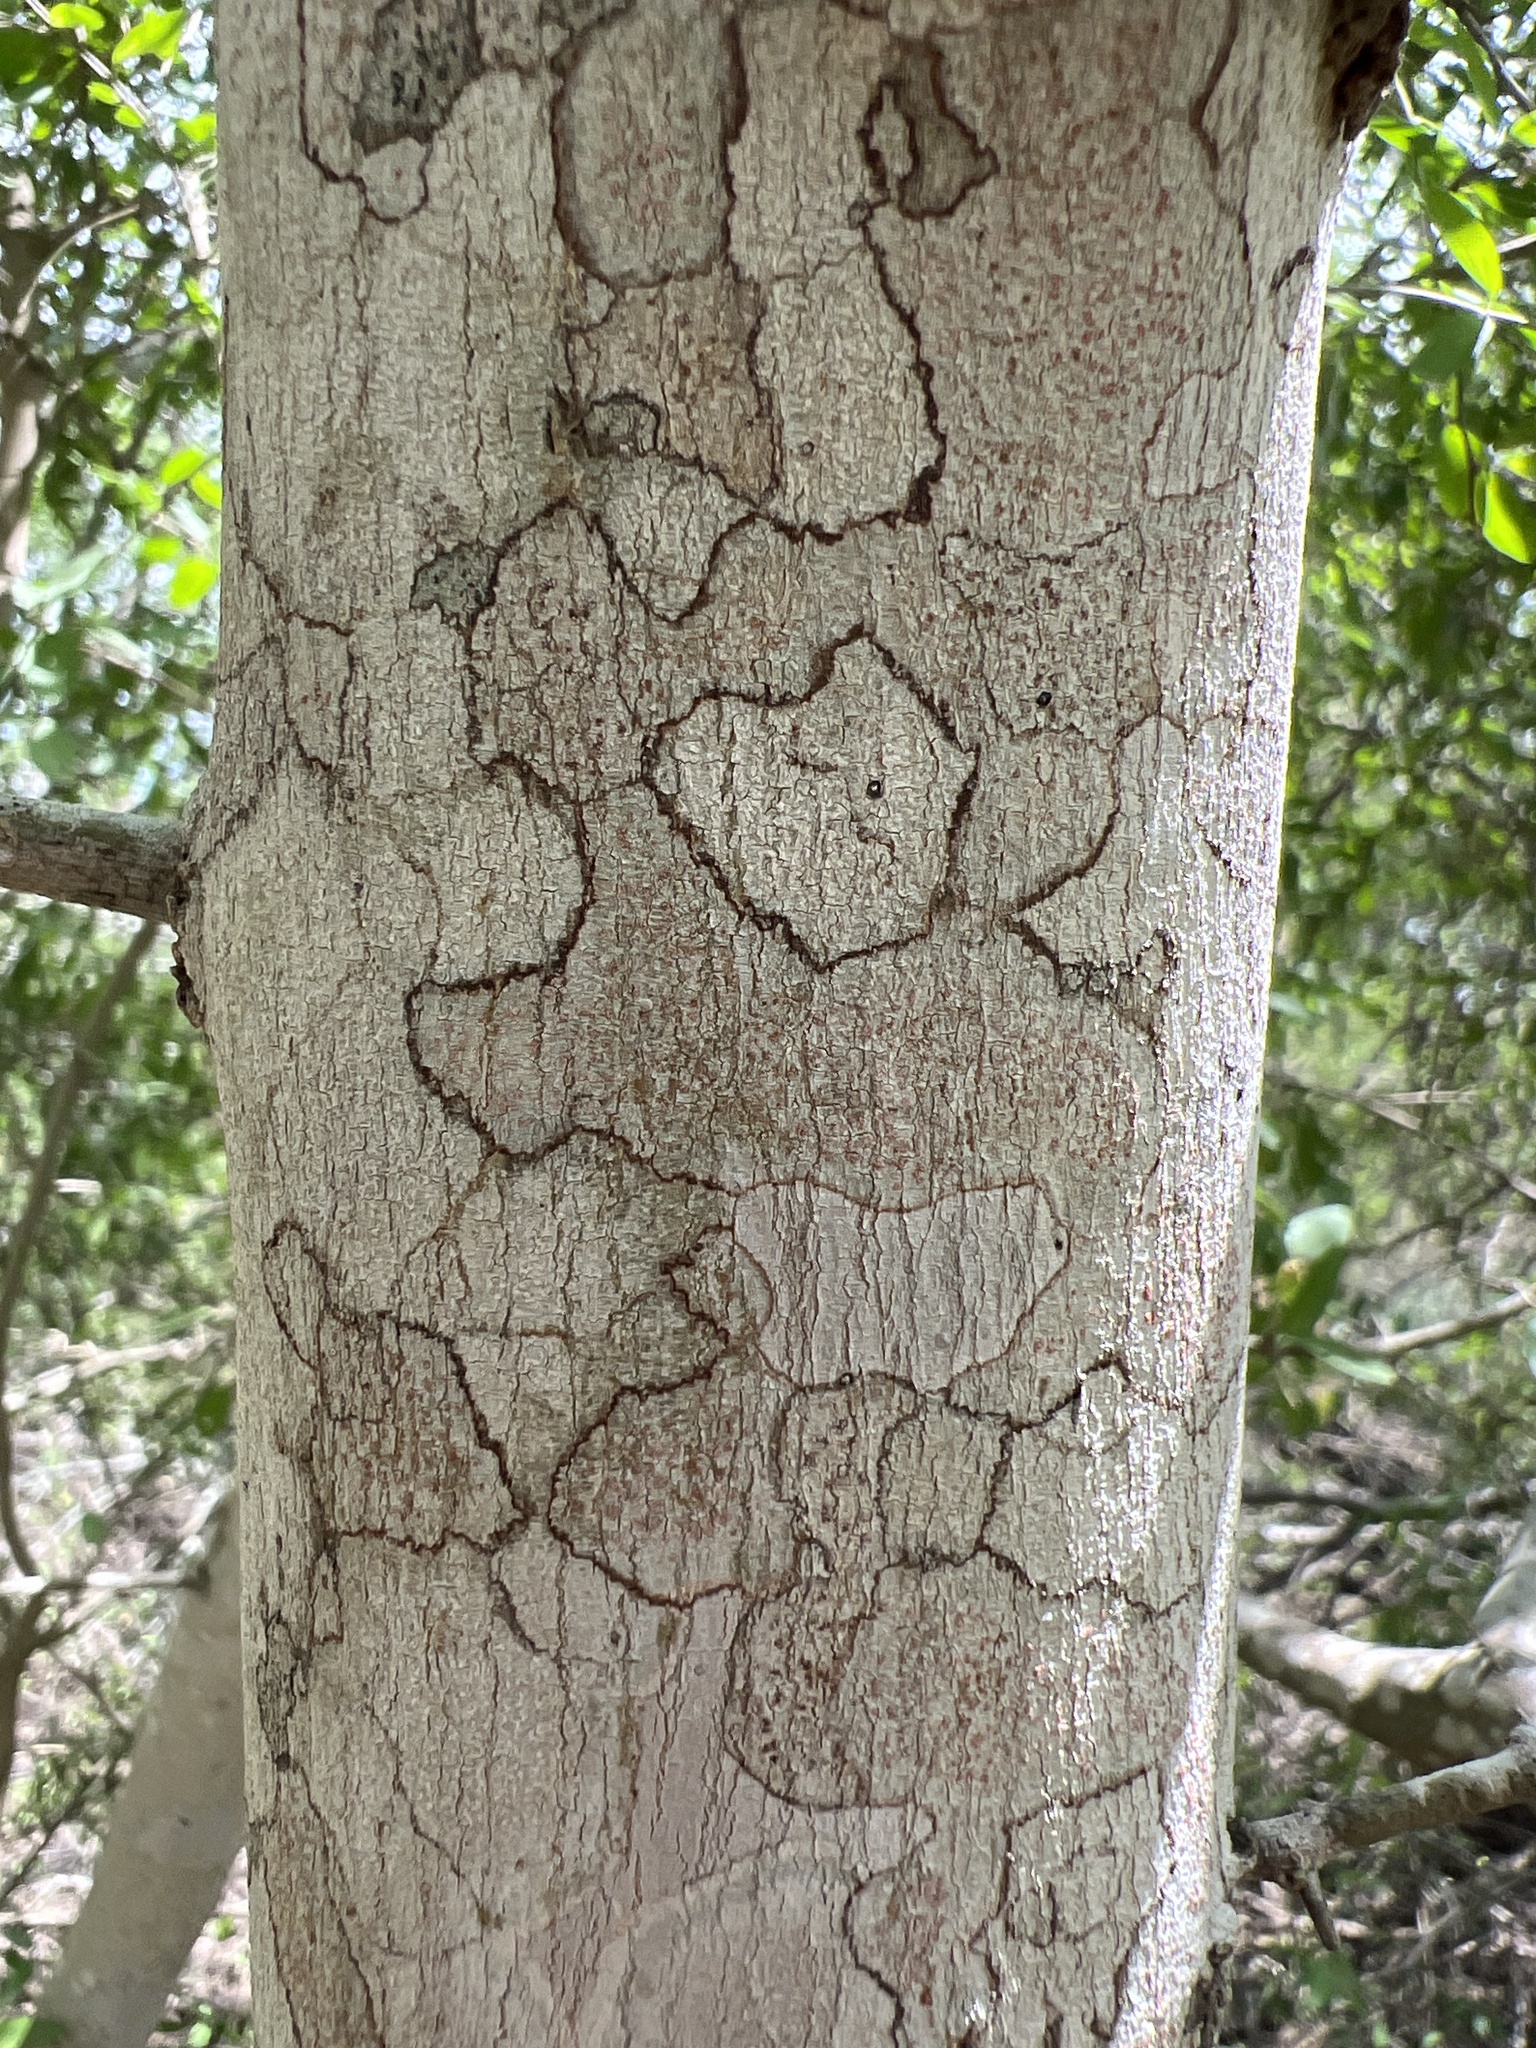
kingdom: Plantae
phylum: Tracheophyta
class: Magnoliopsida
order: Rosales
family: Cannabaceae
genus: Celtis
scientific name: Celtis pallida
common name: Desert hackberry
